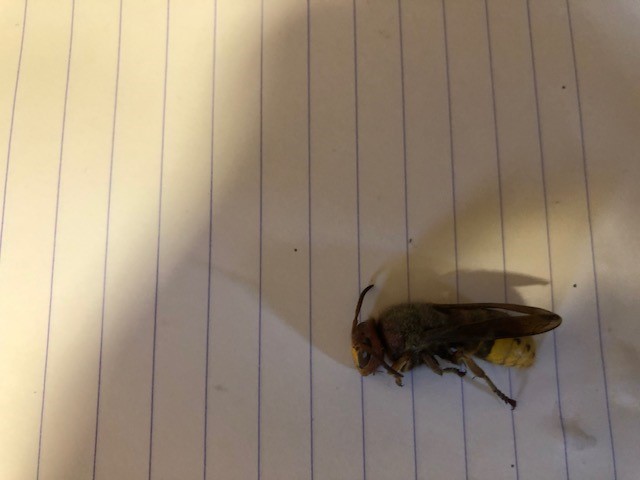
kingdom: Animalia
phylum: Arthropoda
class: Insecta
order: Hymenoptera
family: Vespidae
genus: Vespa
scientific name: Vespa crabro
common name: Hornet
